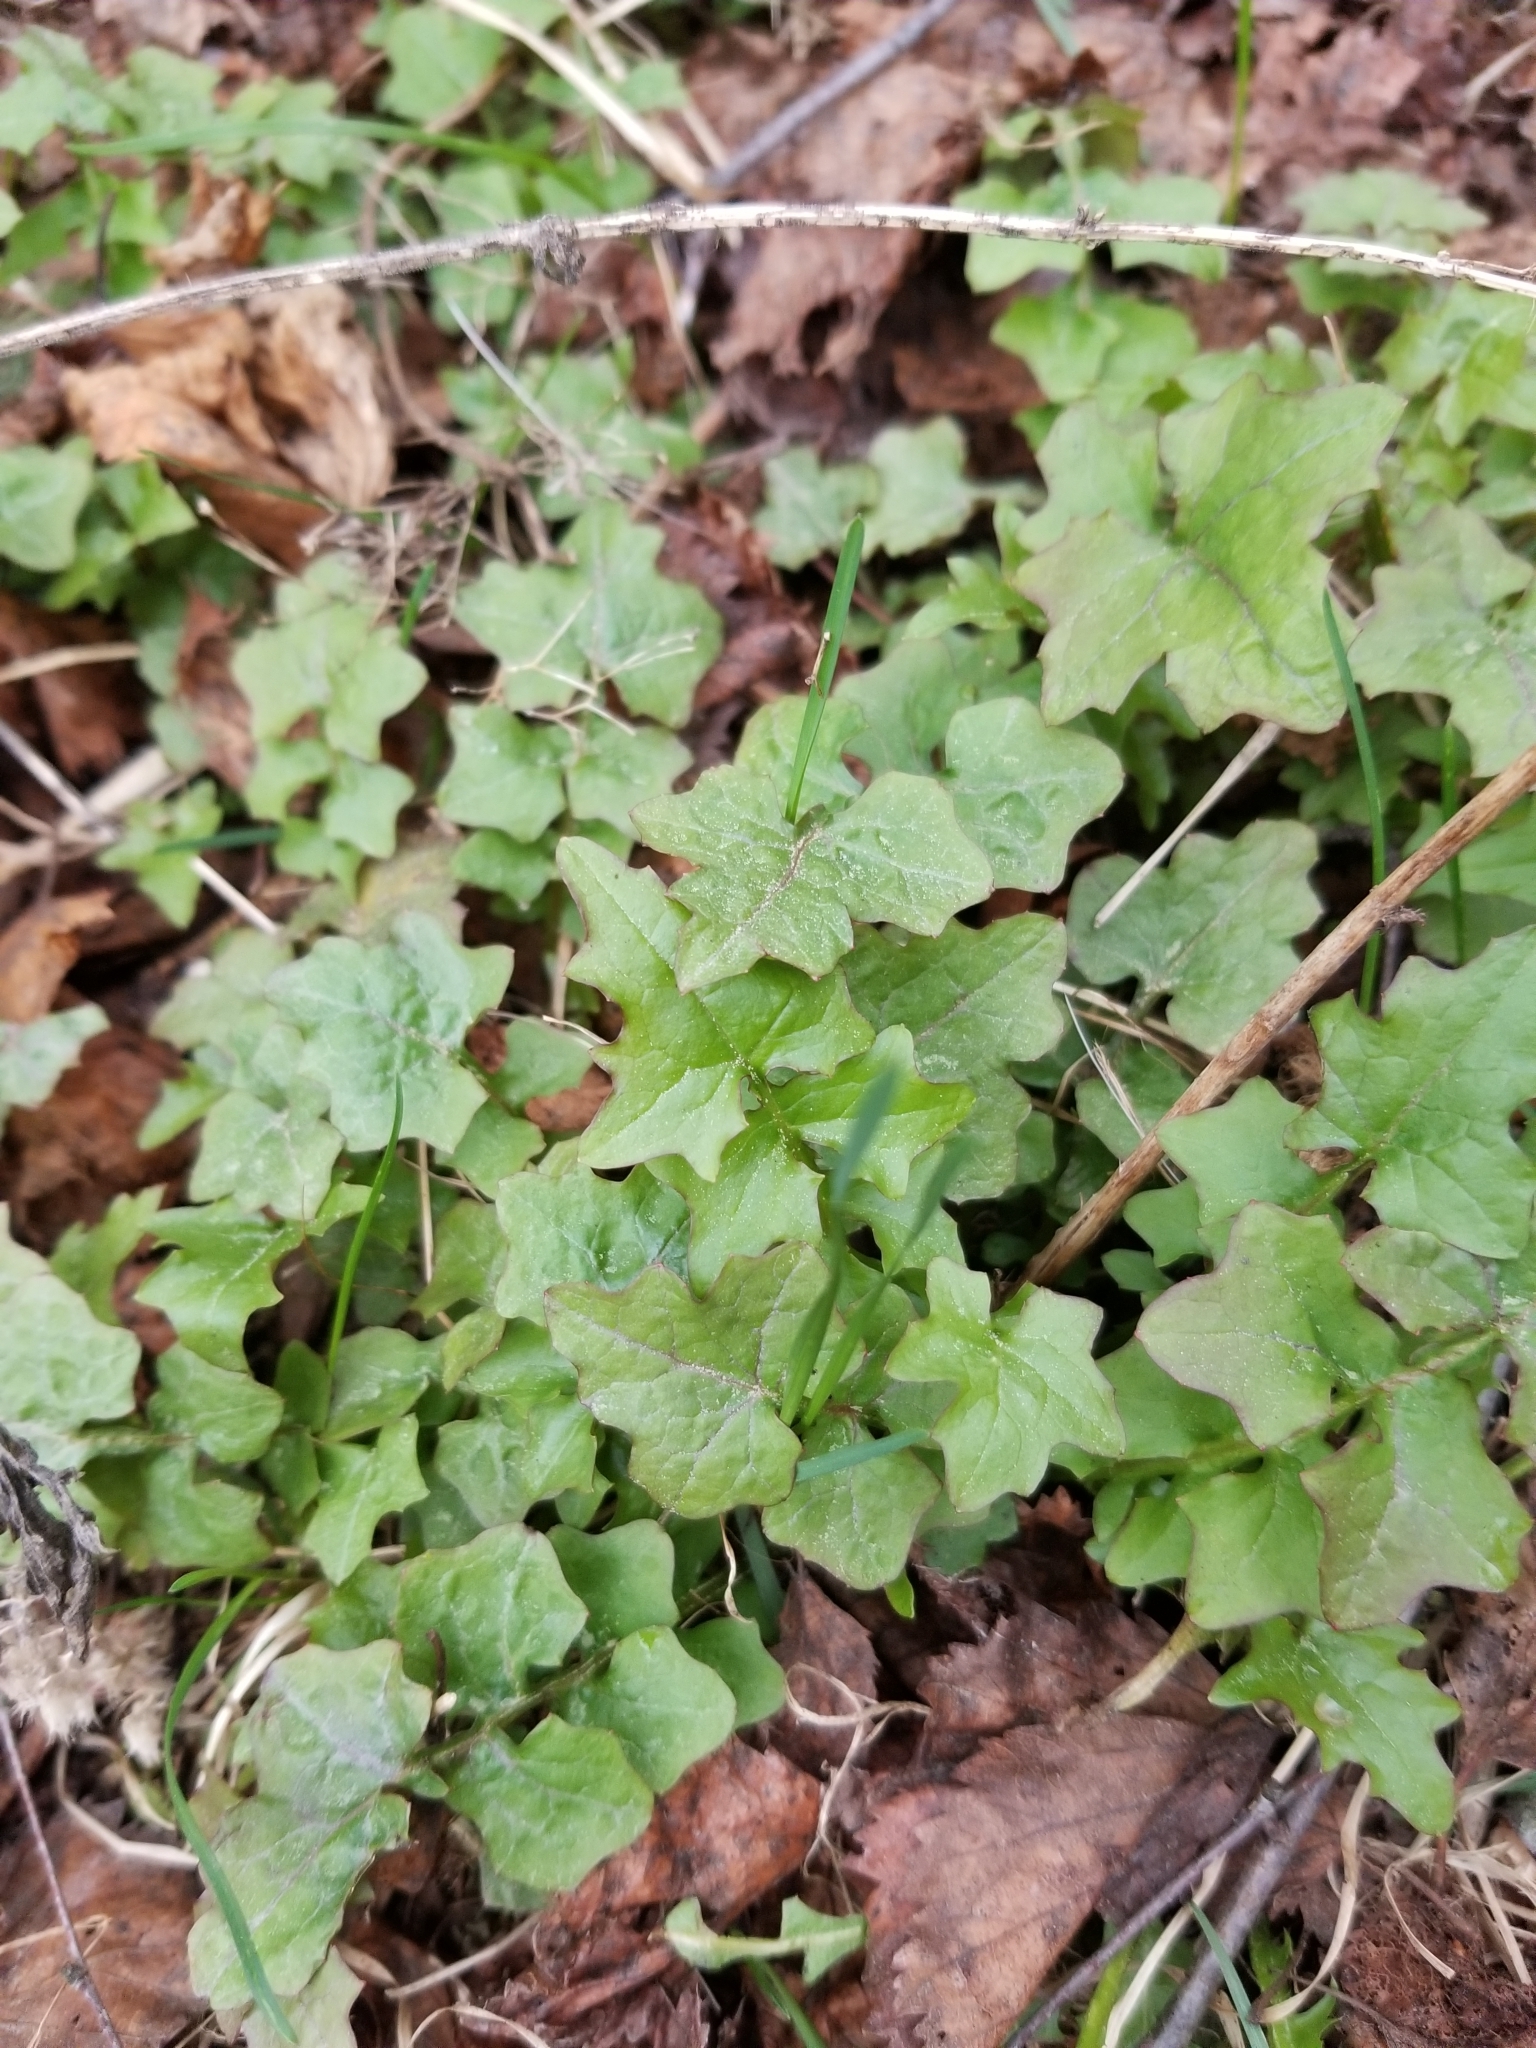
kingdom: Plantae
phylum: Tracheophyta
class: Magnoliopsida
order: Asterales
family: Asteraceae
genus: Mycelis
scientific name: Mycelis muralis
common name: Wall lettuce
